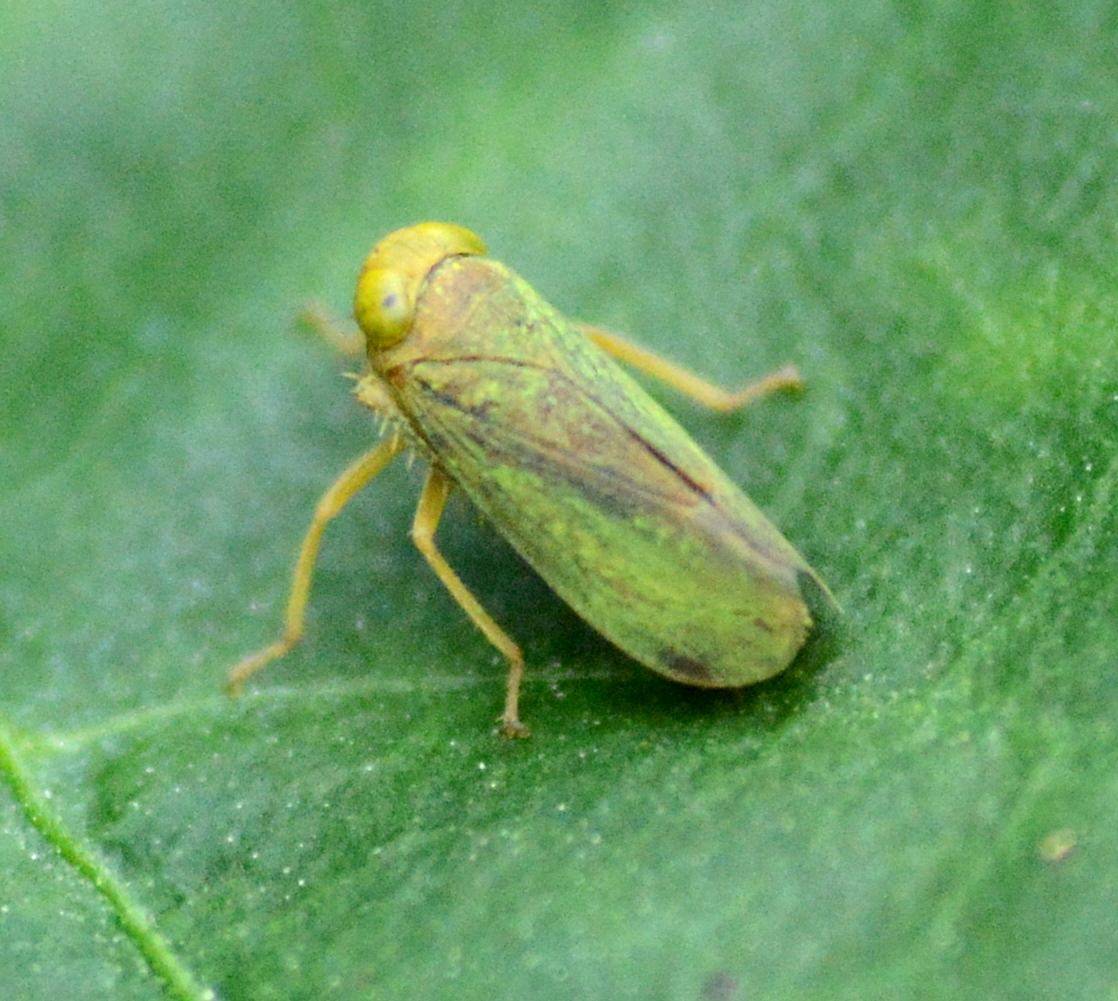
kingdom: Animalia
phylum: Arthropoda
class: Insecta
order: Hemiptera
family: Cicadellidae
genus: Jikradia
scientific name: Jikradia olitoria
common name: Coppery leafhopper
